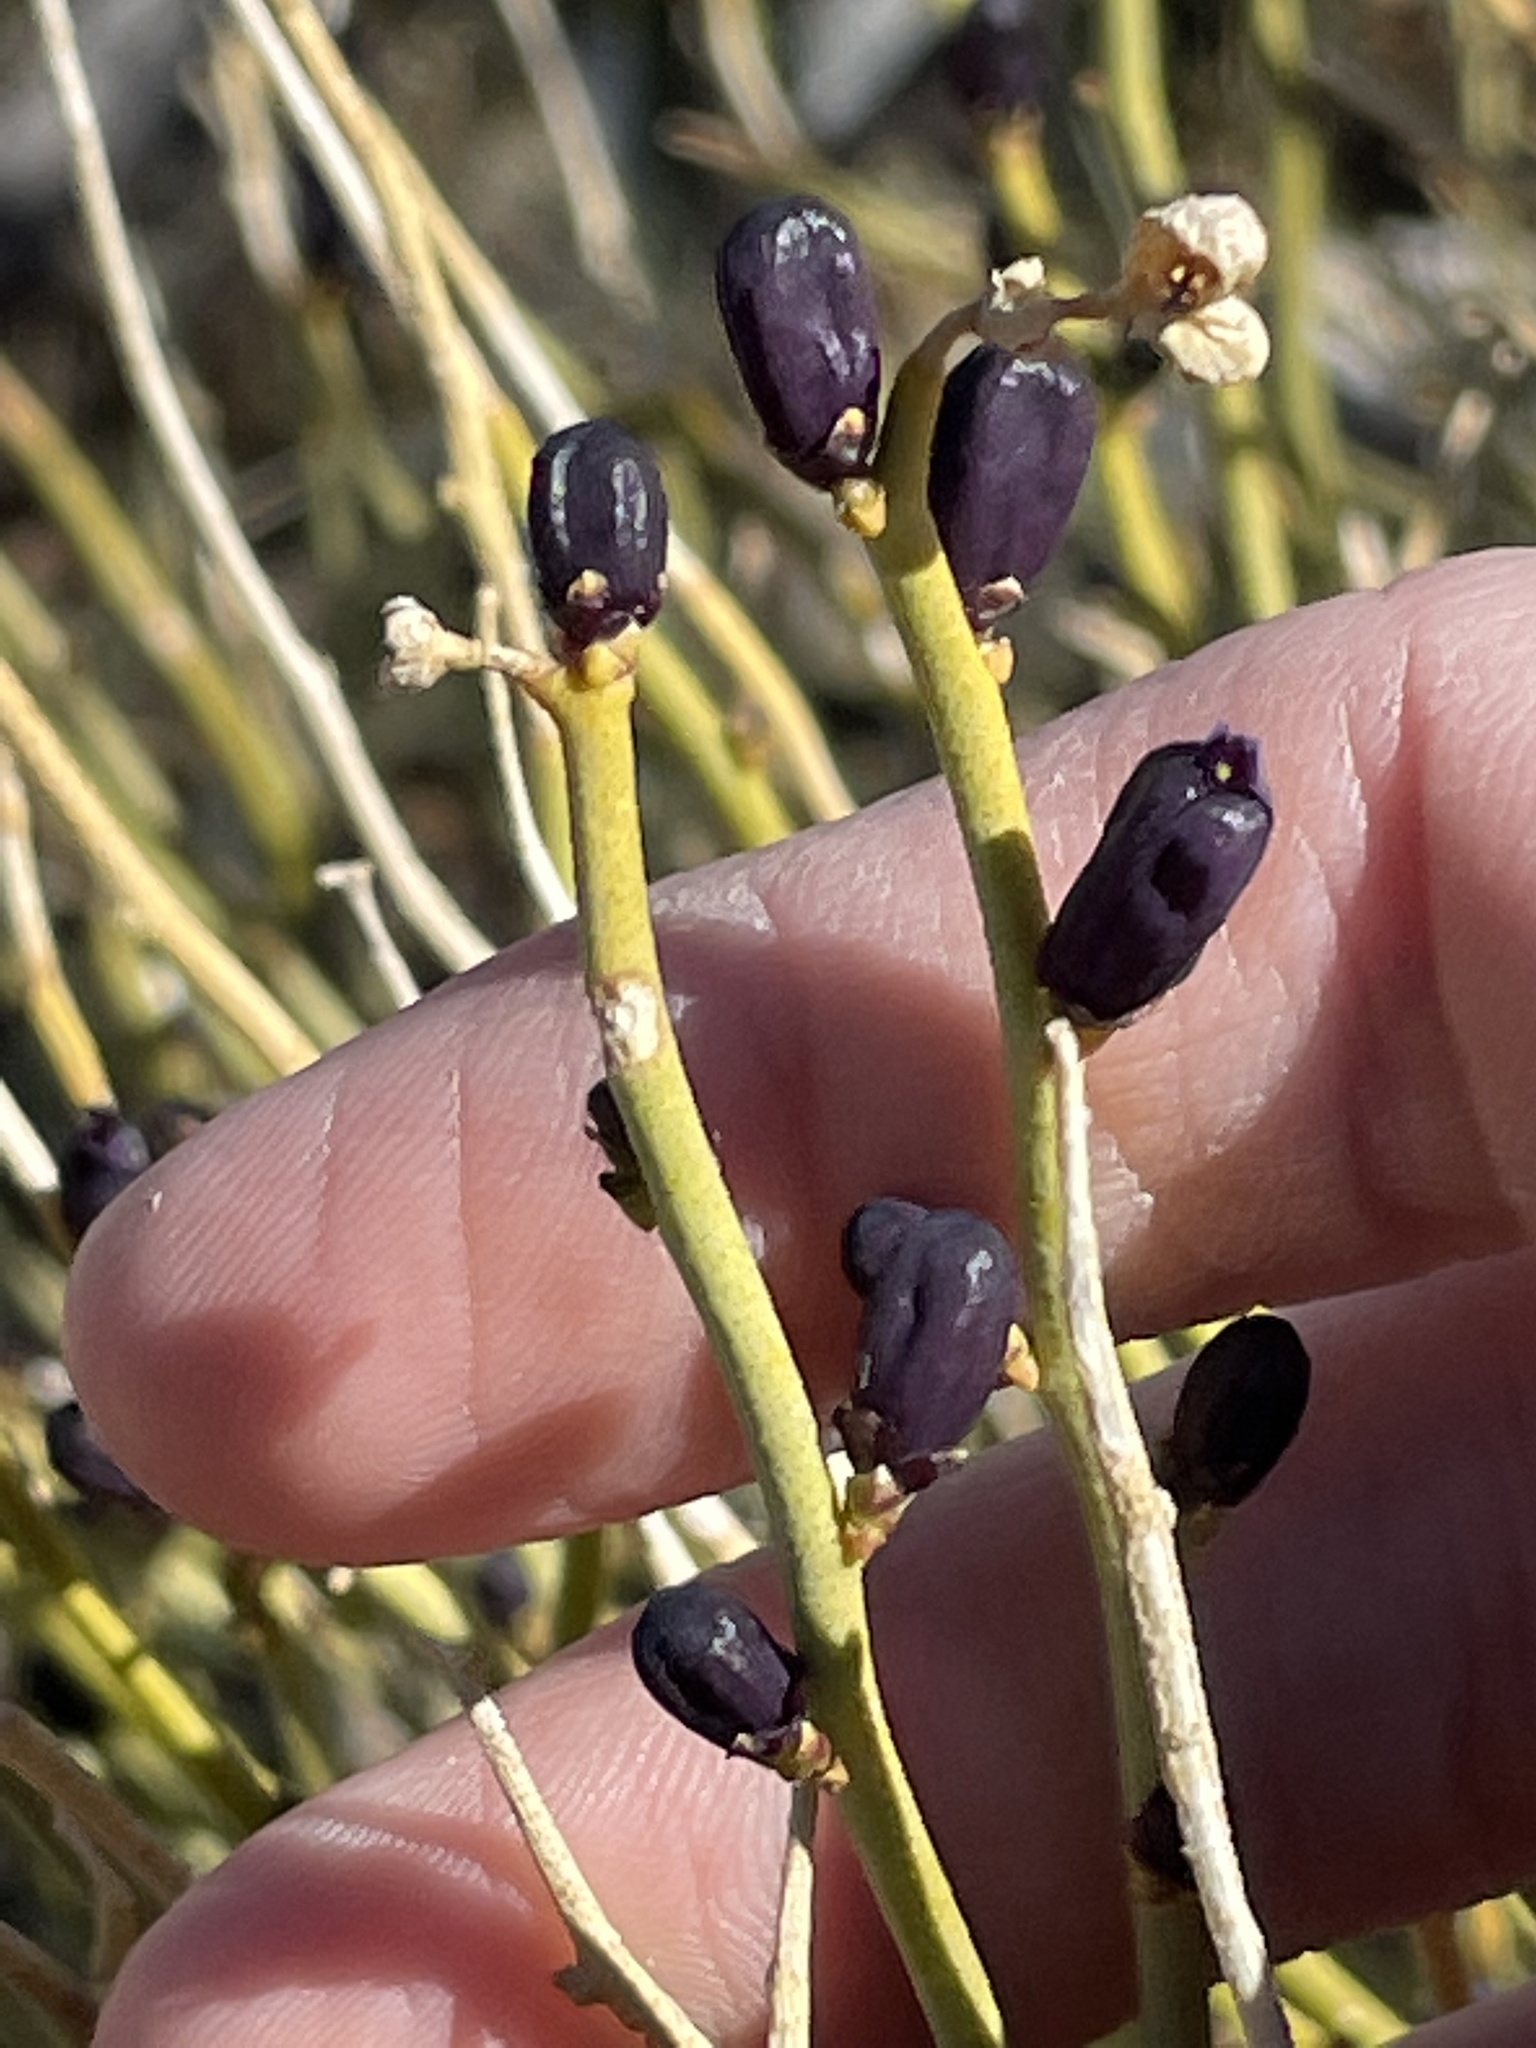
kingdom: Plantae
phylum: Tracheophyta
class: Magnoliopsida
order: Sapindales
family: Rutaceae
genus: Thamnosma
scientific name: Thamnosma montana
